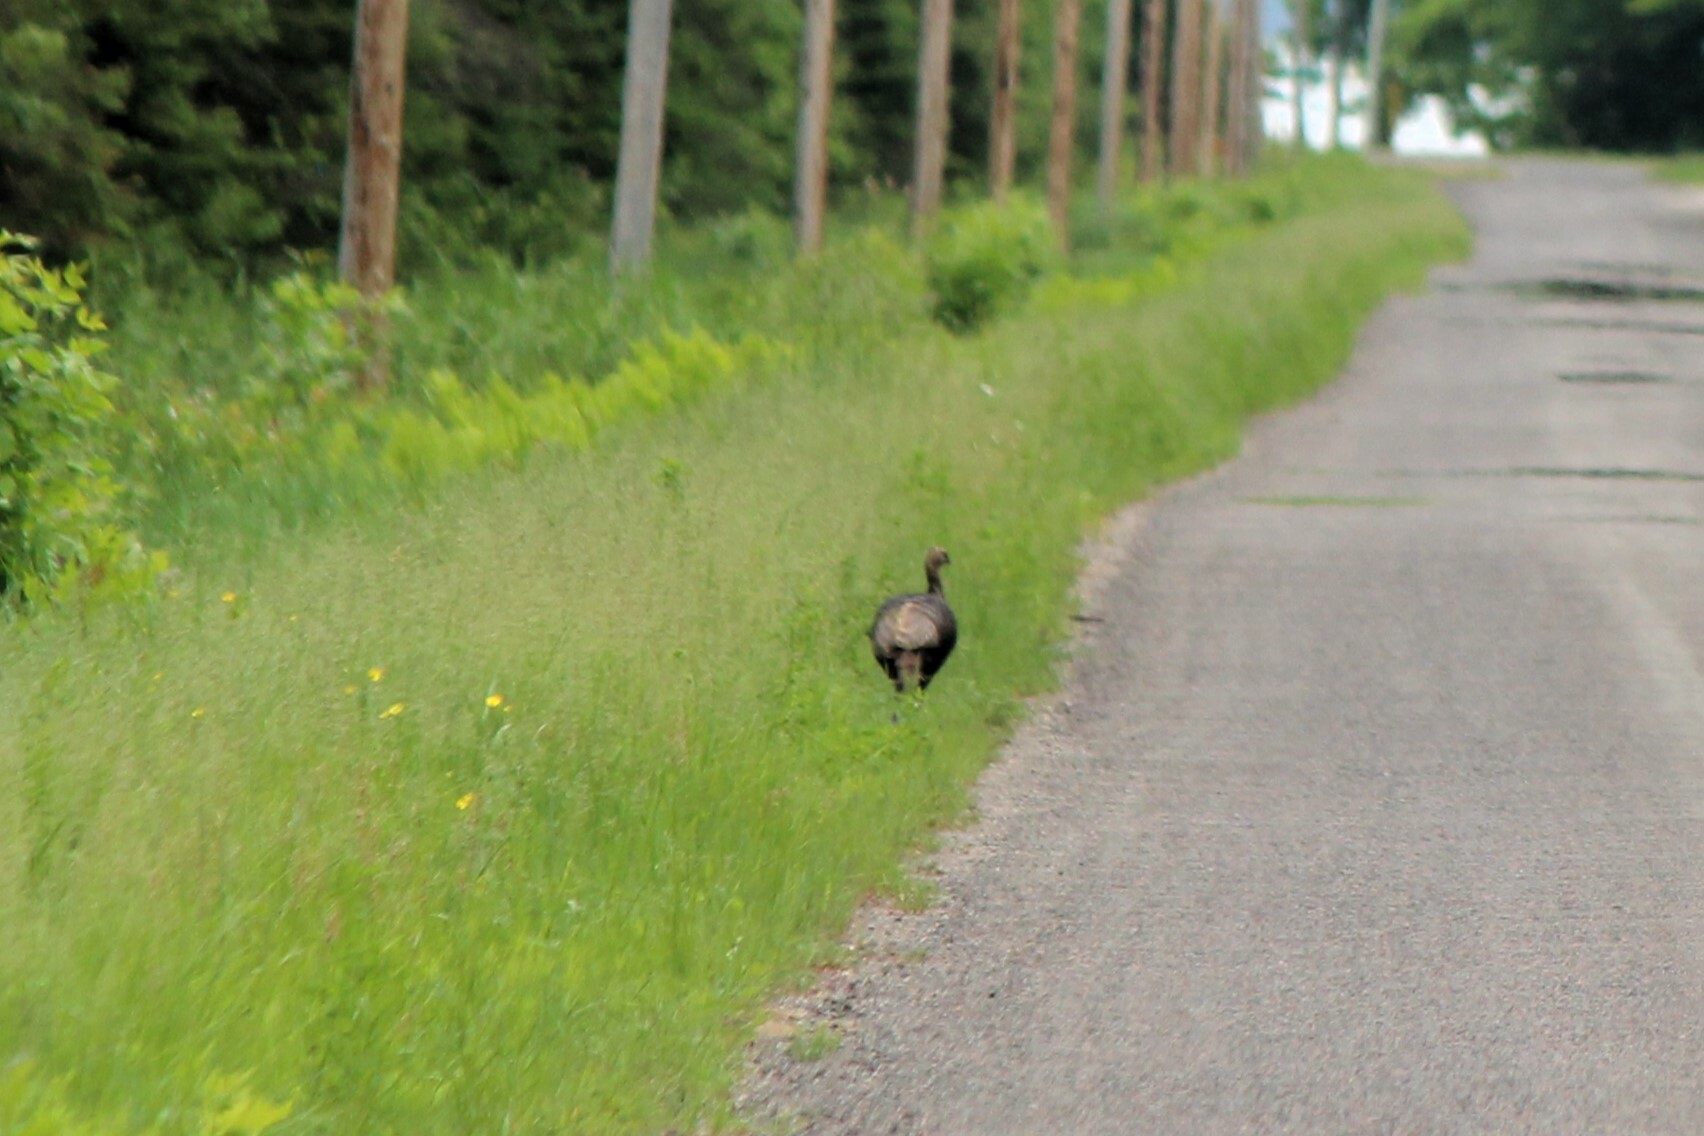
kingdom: Animalia
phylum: Chordata
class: Aves
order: Galliformes
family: Phasianidae
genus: Meleagris
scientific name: Meleagris gallopavo
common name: Wild turkey
